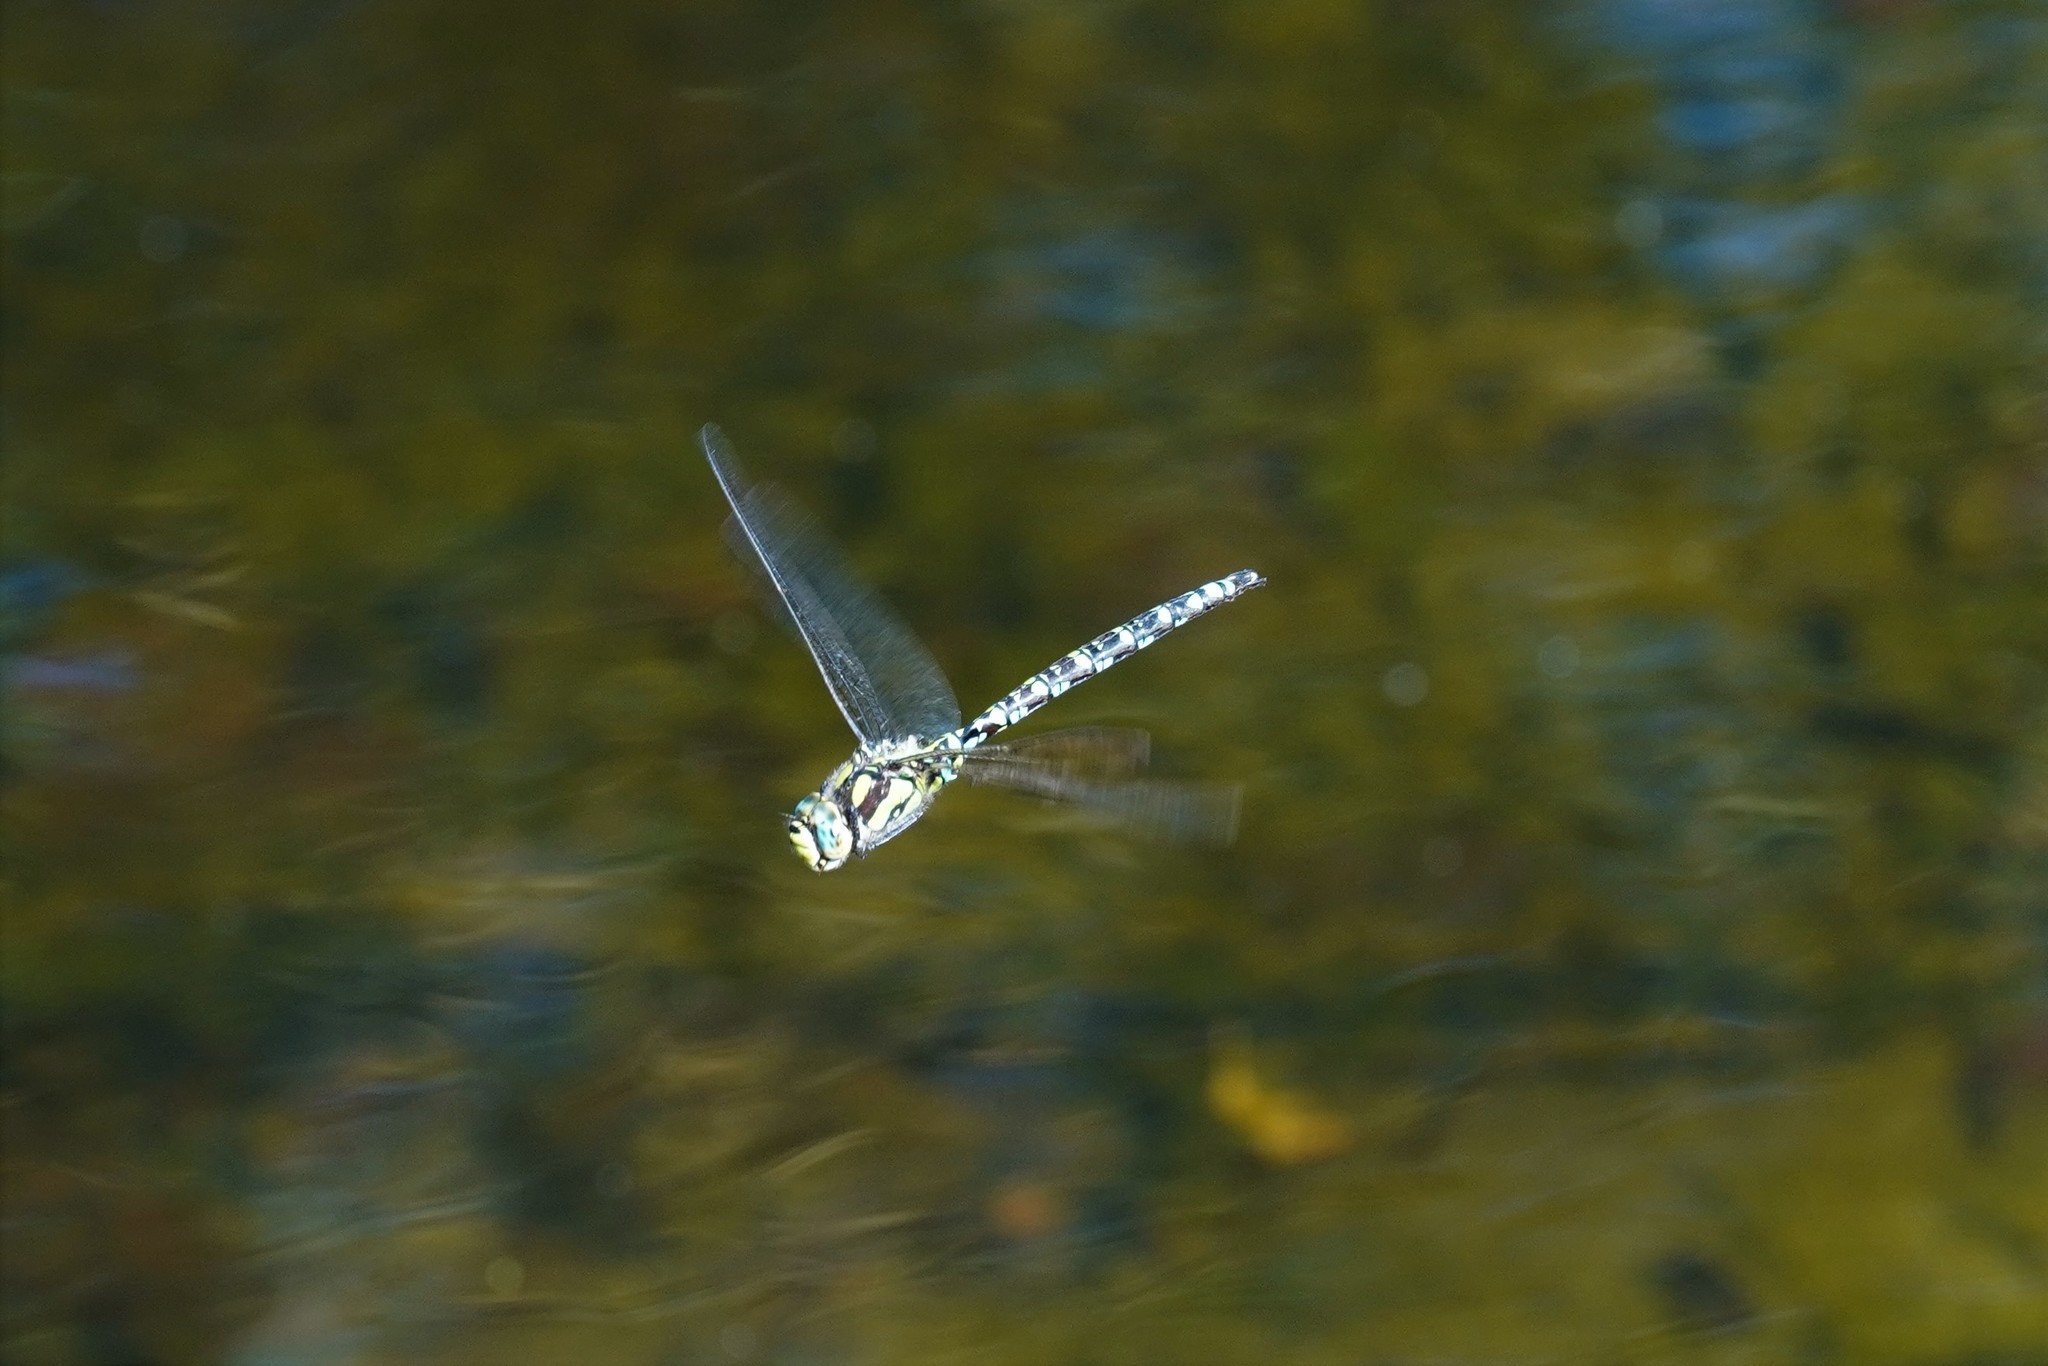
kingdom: Animalia
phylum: Arthropoda
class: Insecta
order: Odonata
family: Aeshnidae
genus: Aeshna
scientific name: Aeshna cyanea
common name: Southern hawker
